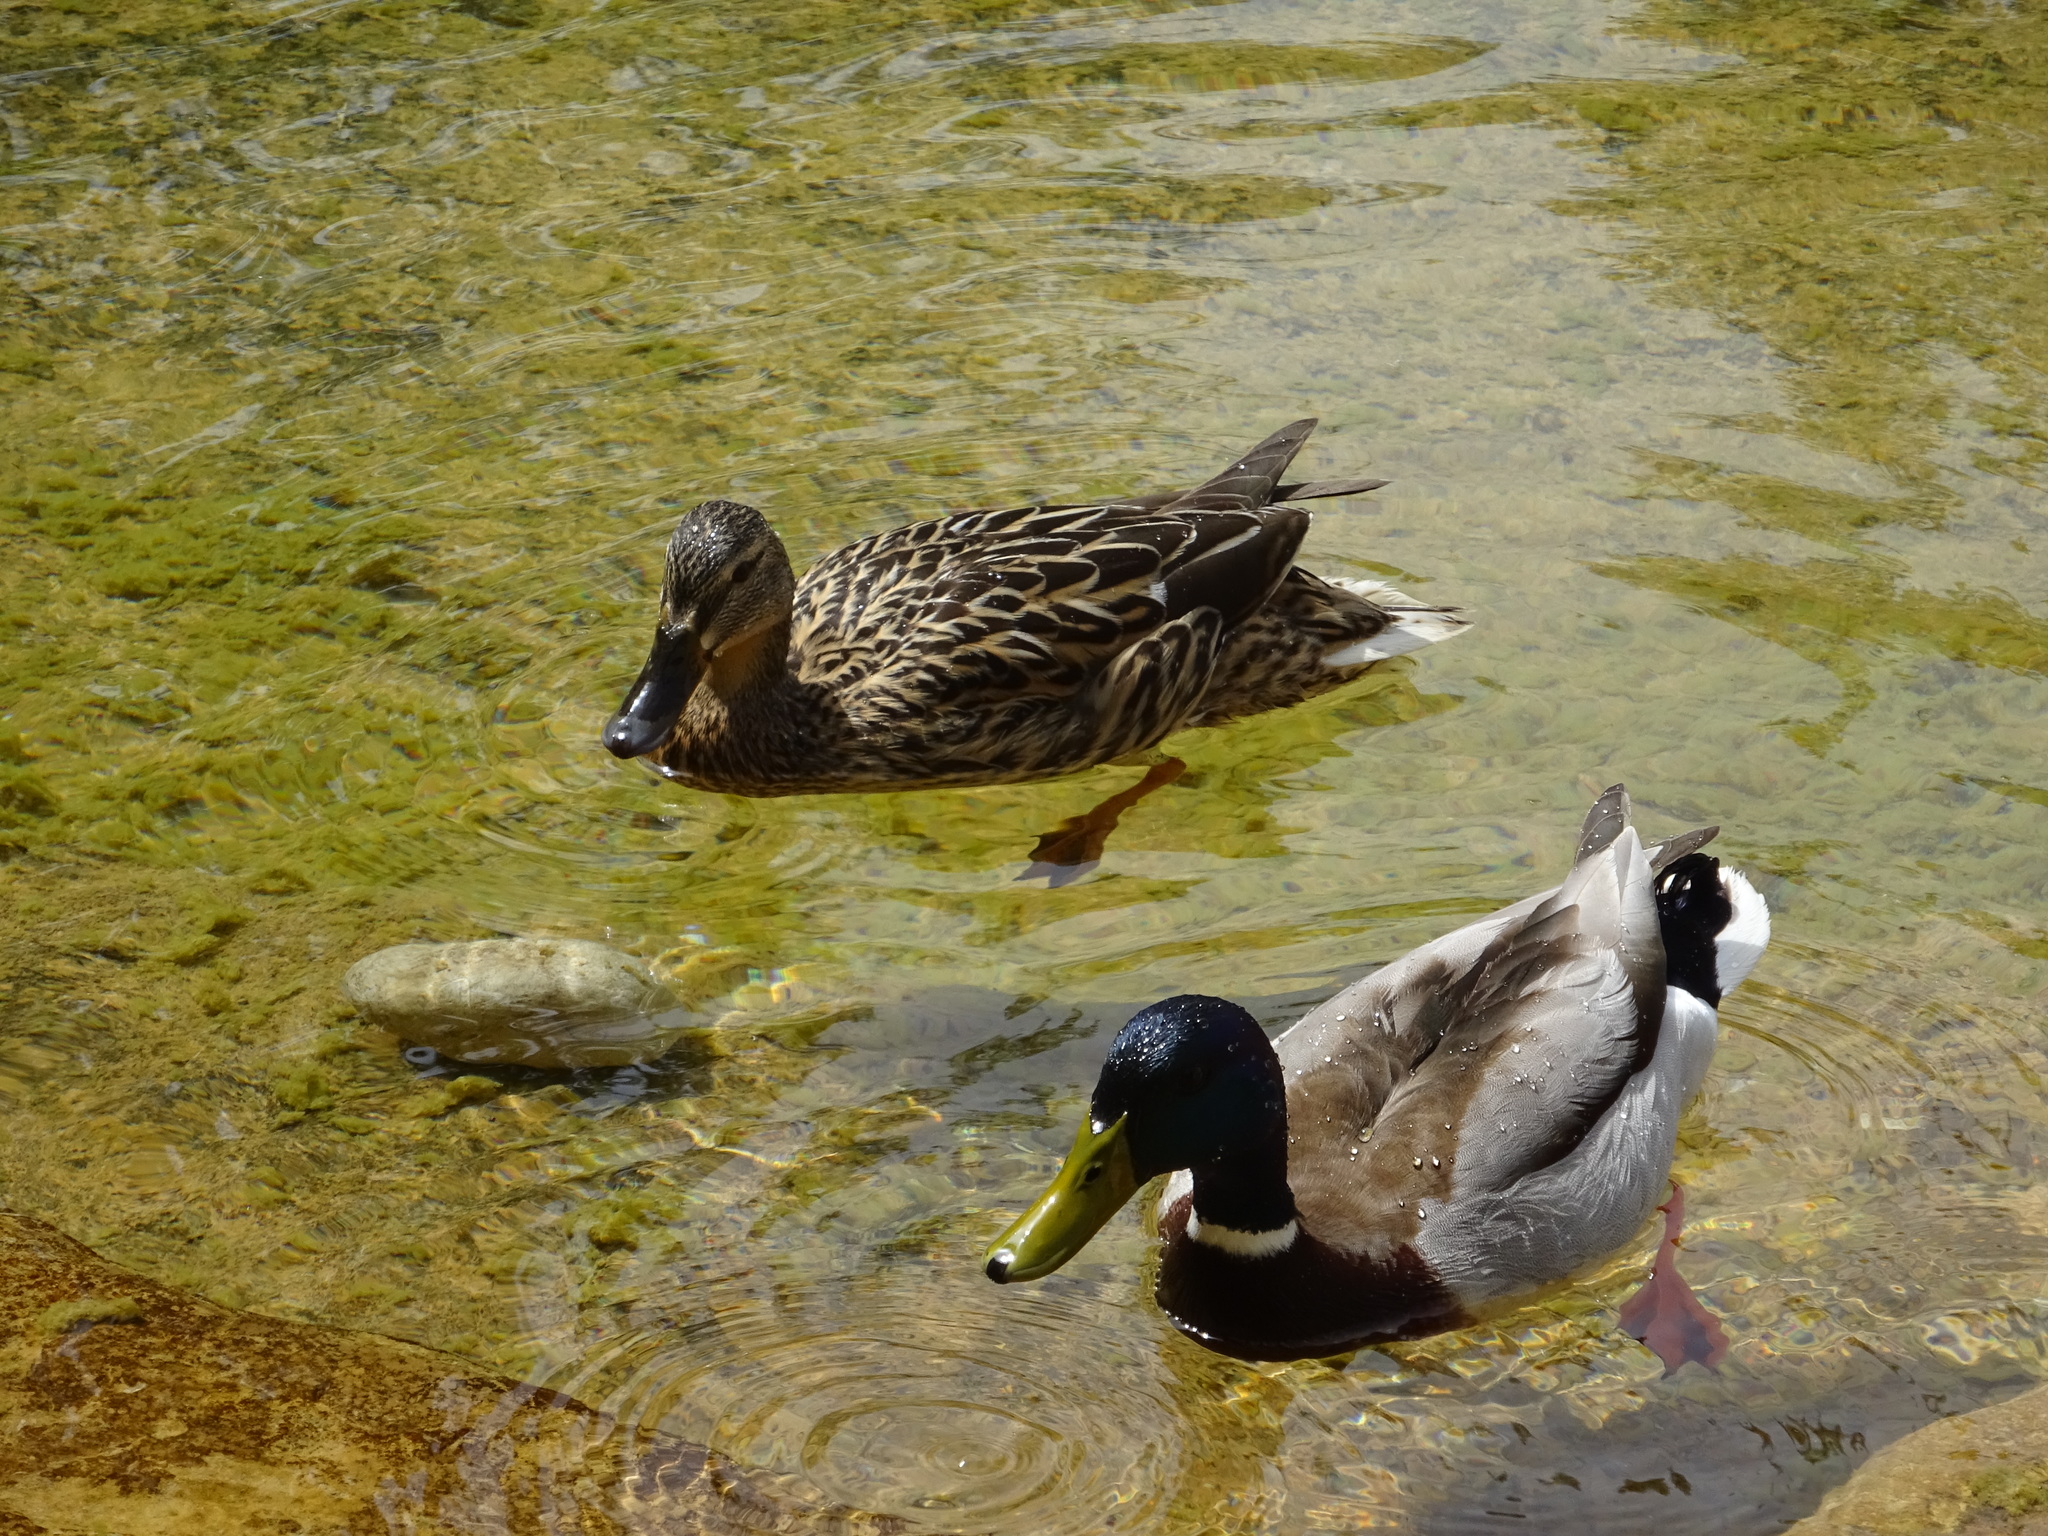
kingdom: Animalia
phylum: Chordata
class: Aves
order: Anseriformes
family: Anatidae
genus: Anas
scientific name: Anas platyrhynchos
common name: Mallard
